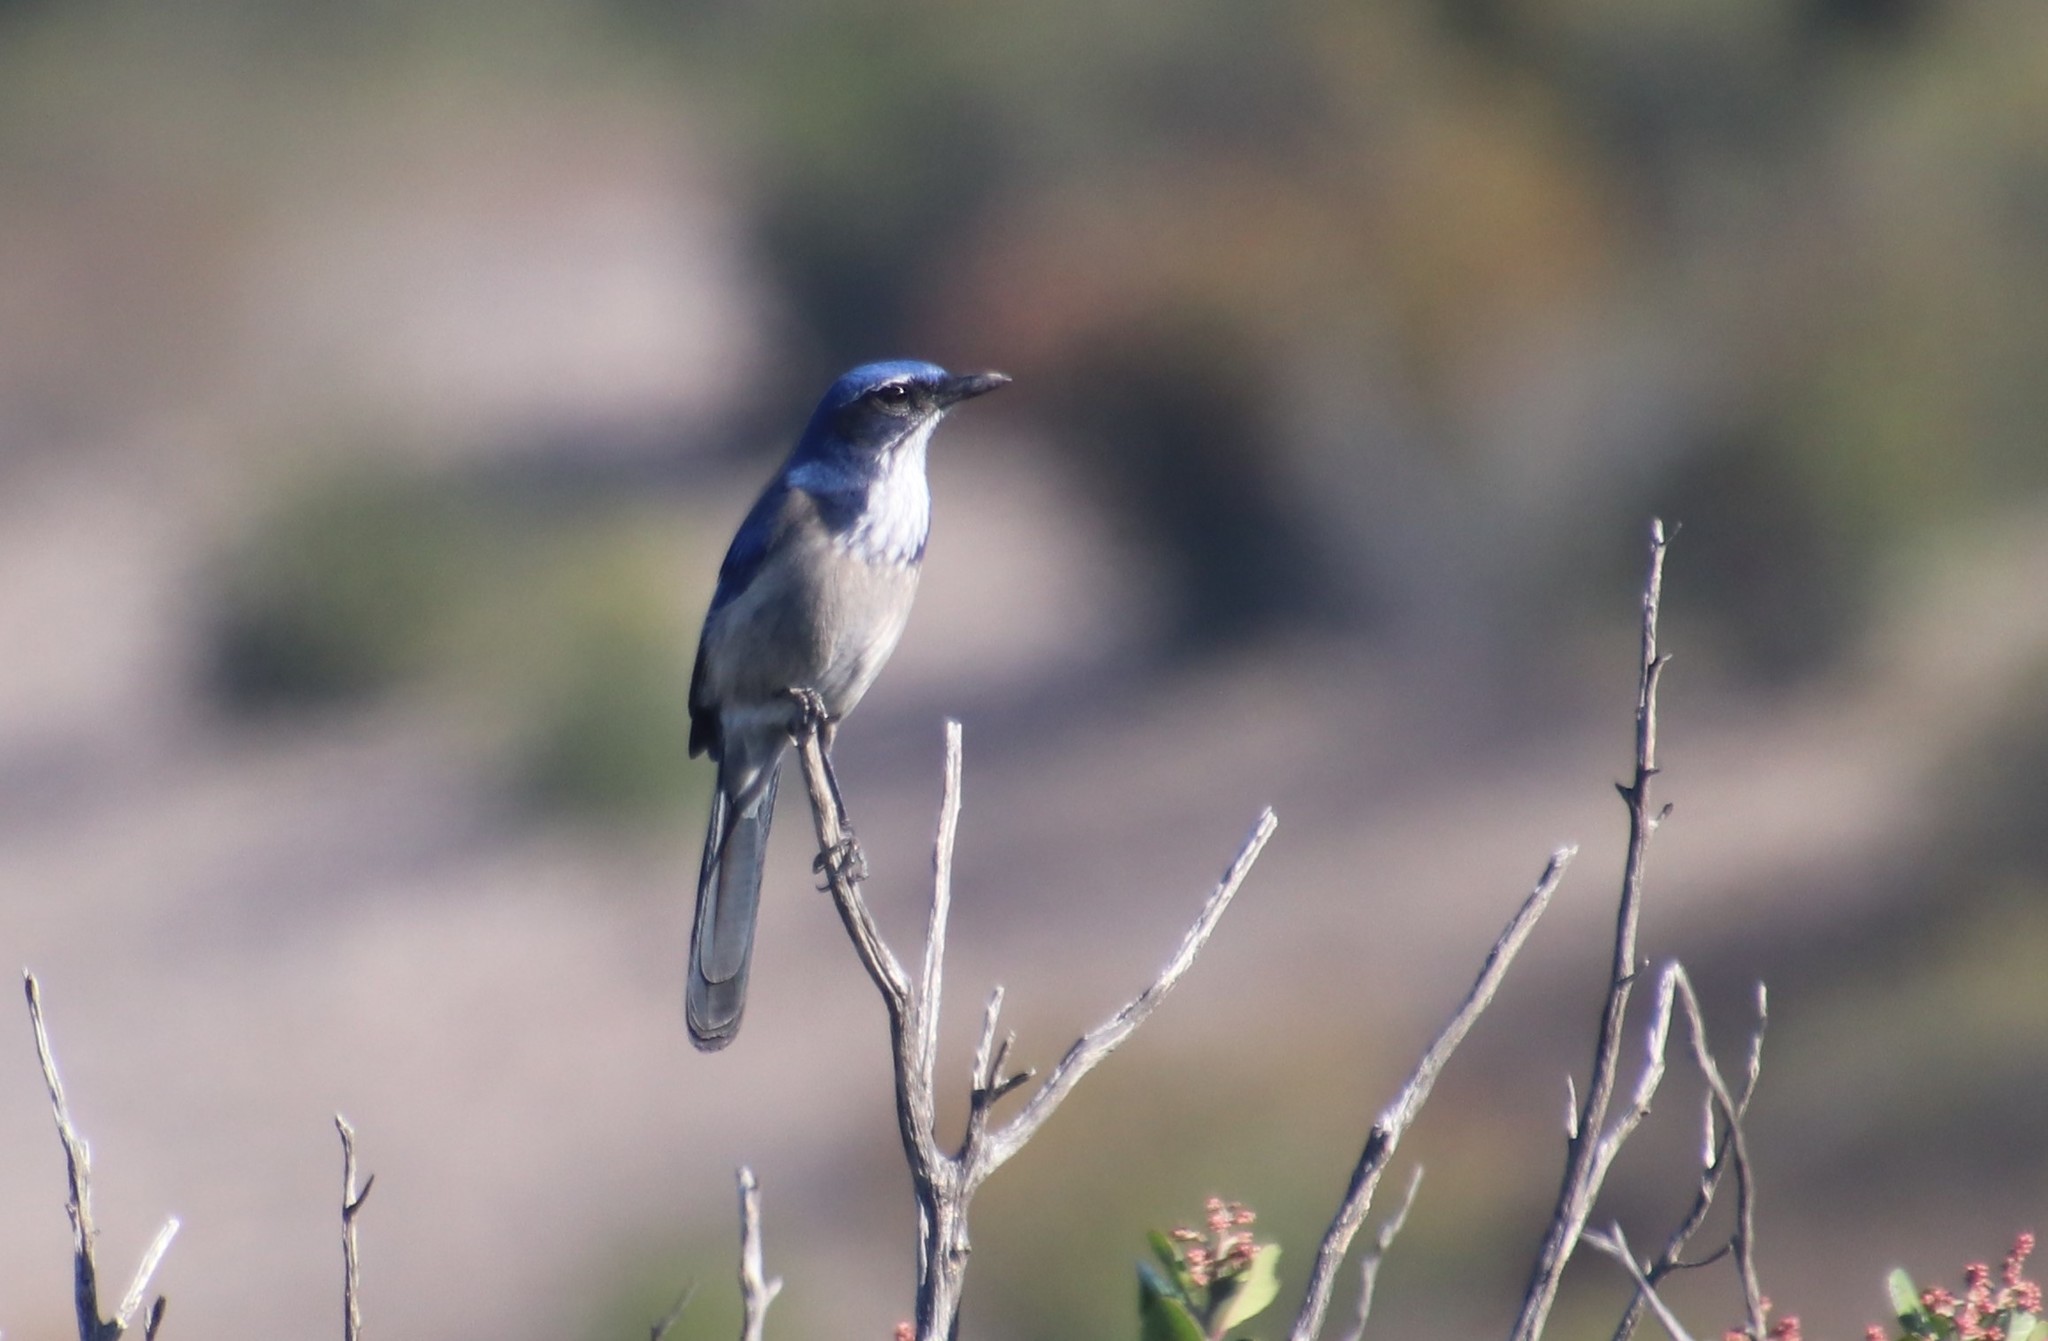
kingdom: Animalia
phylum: Chordata
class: Aves
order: Passeriformes
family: Corvidae
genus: Aphelocoma
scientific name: Aphelocoma californica
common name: California scrub-jay
